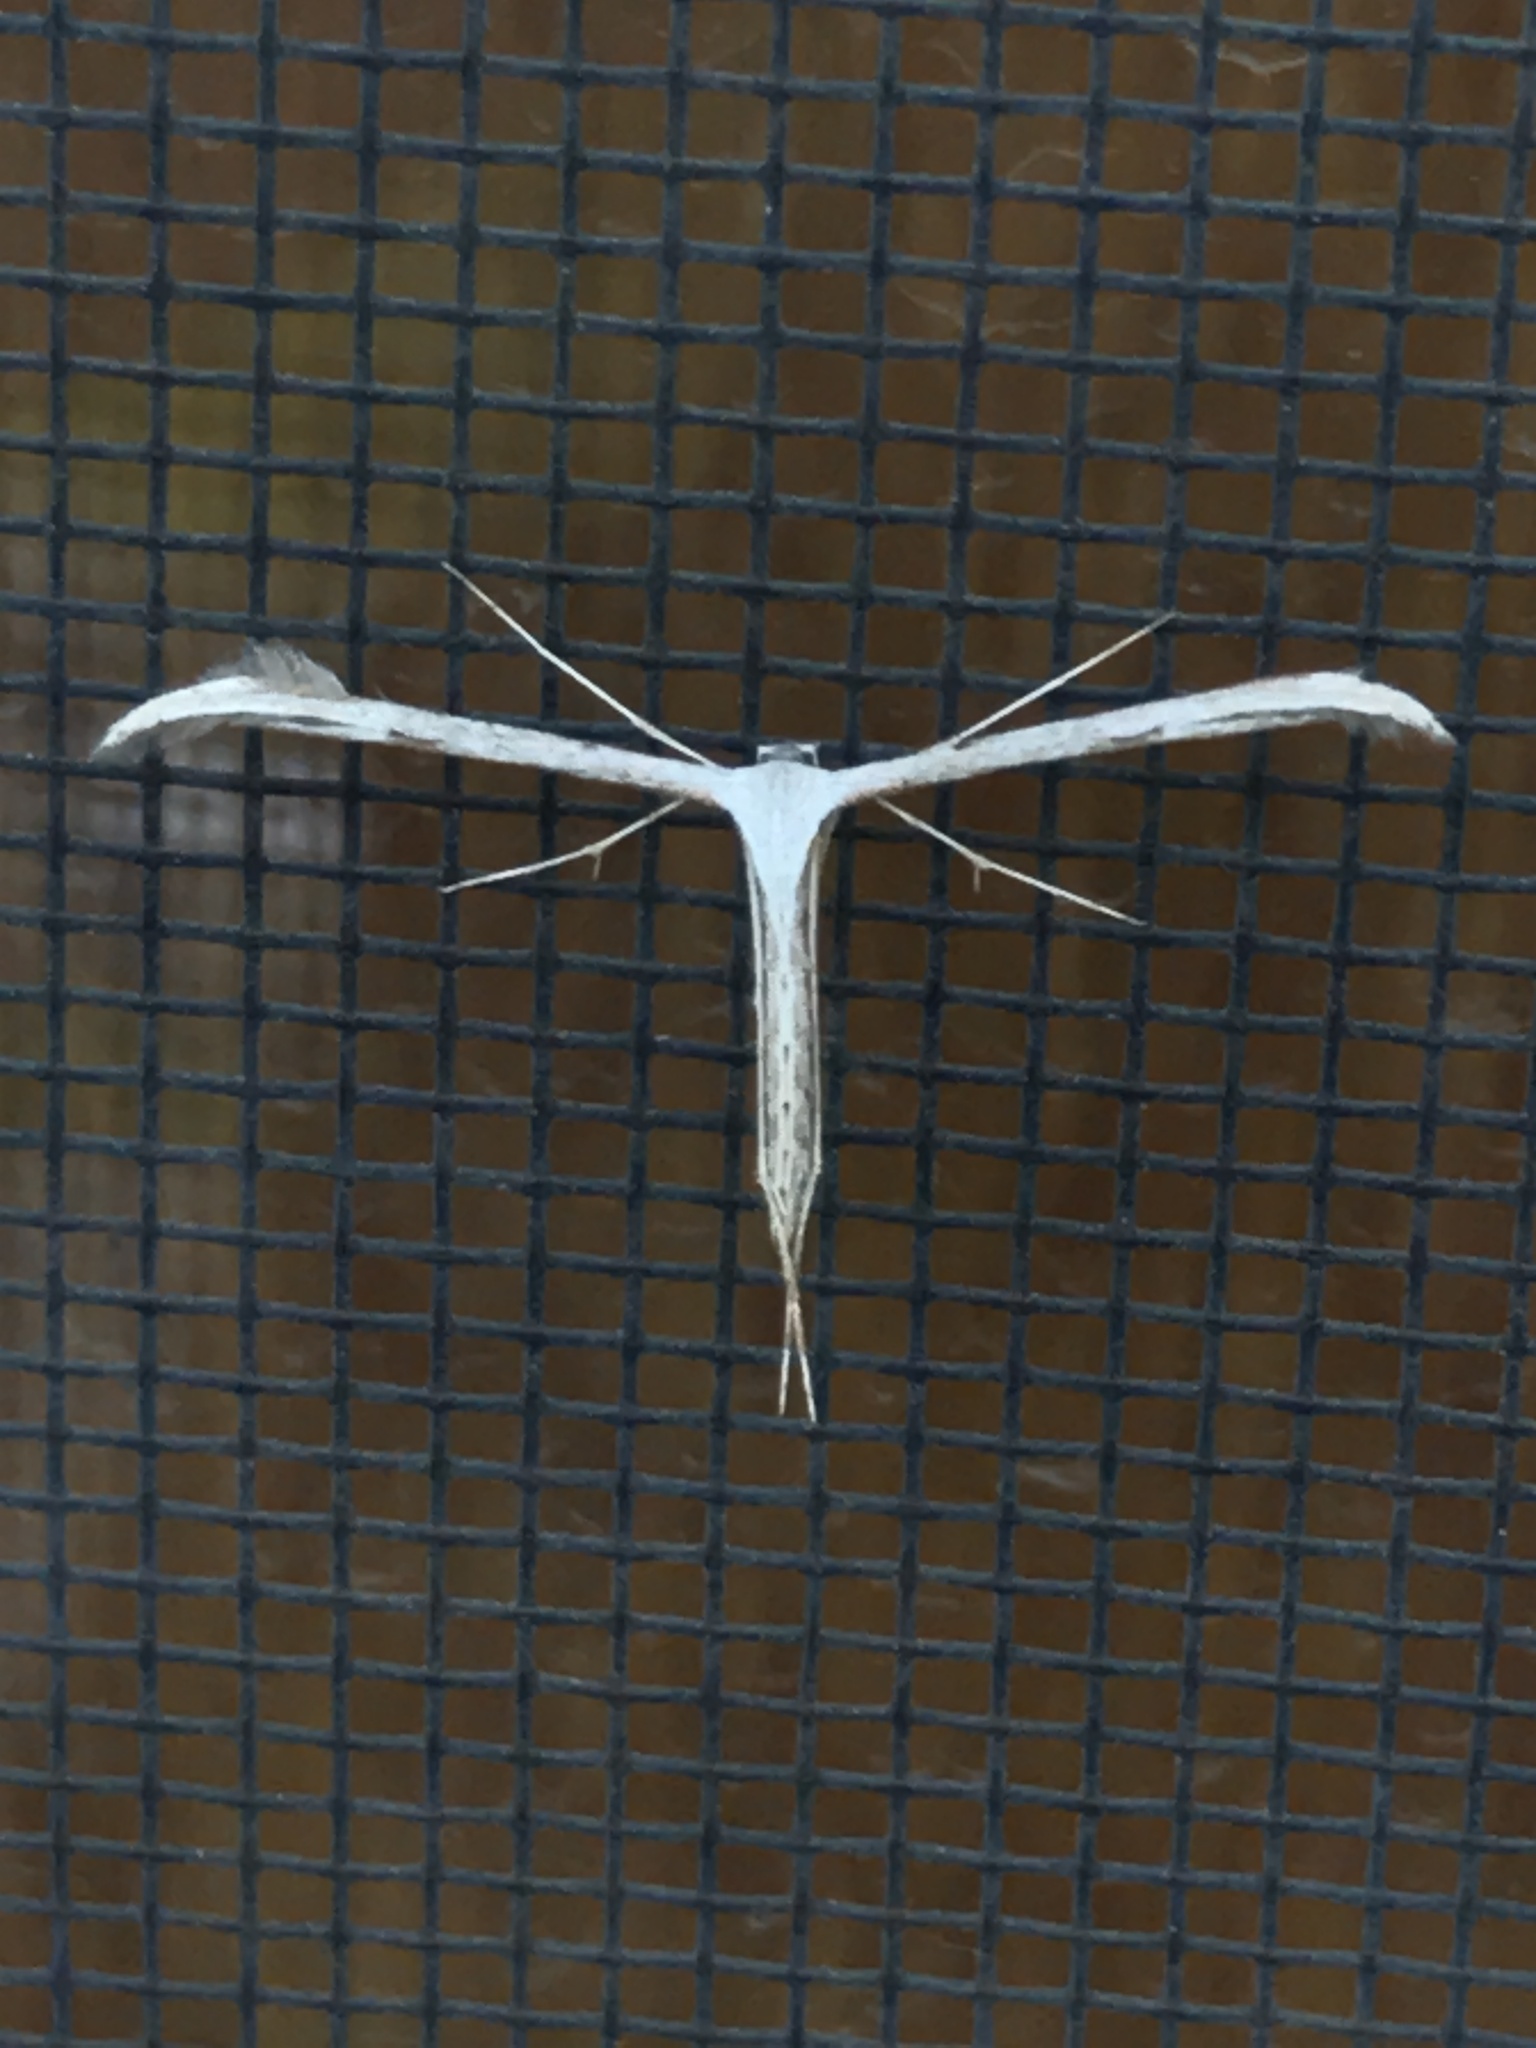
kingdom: Animalia
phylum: Arthropoda
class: Insecta
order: Lepidoptera
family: Pterophoridae
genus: Emmelina
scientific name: Emmelina monodactyla
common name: Common plume
